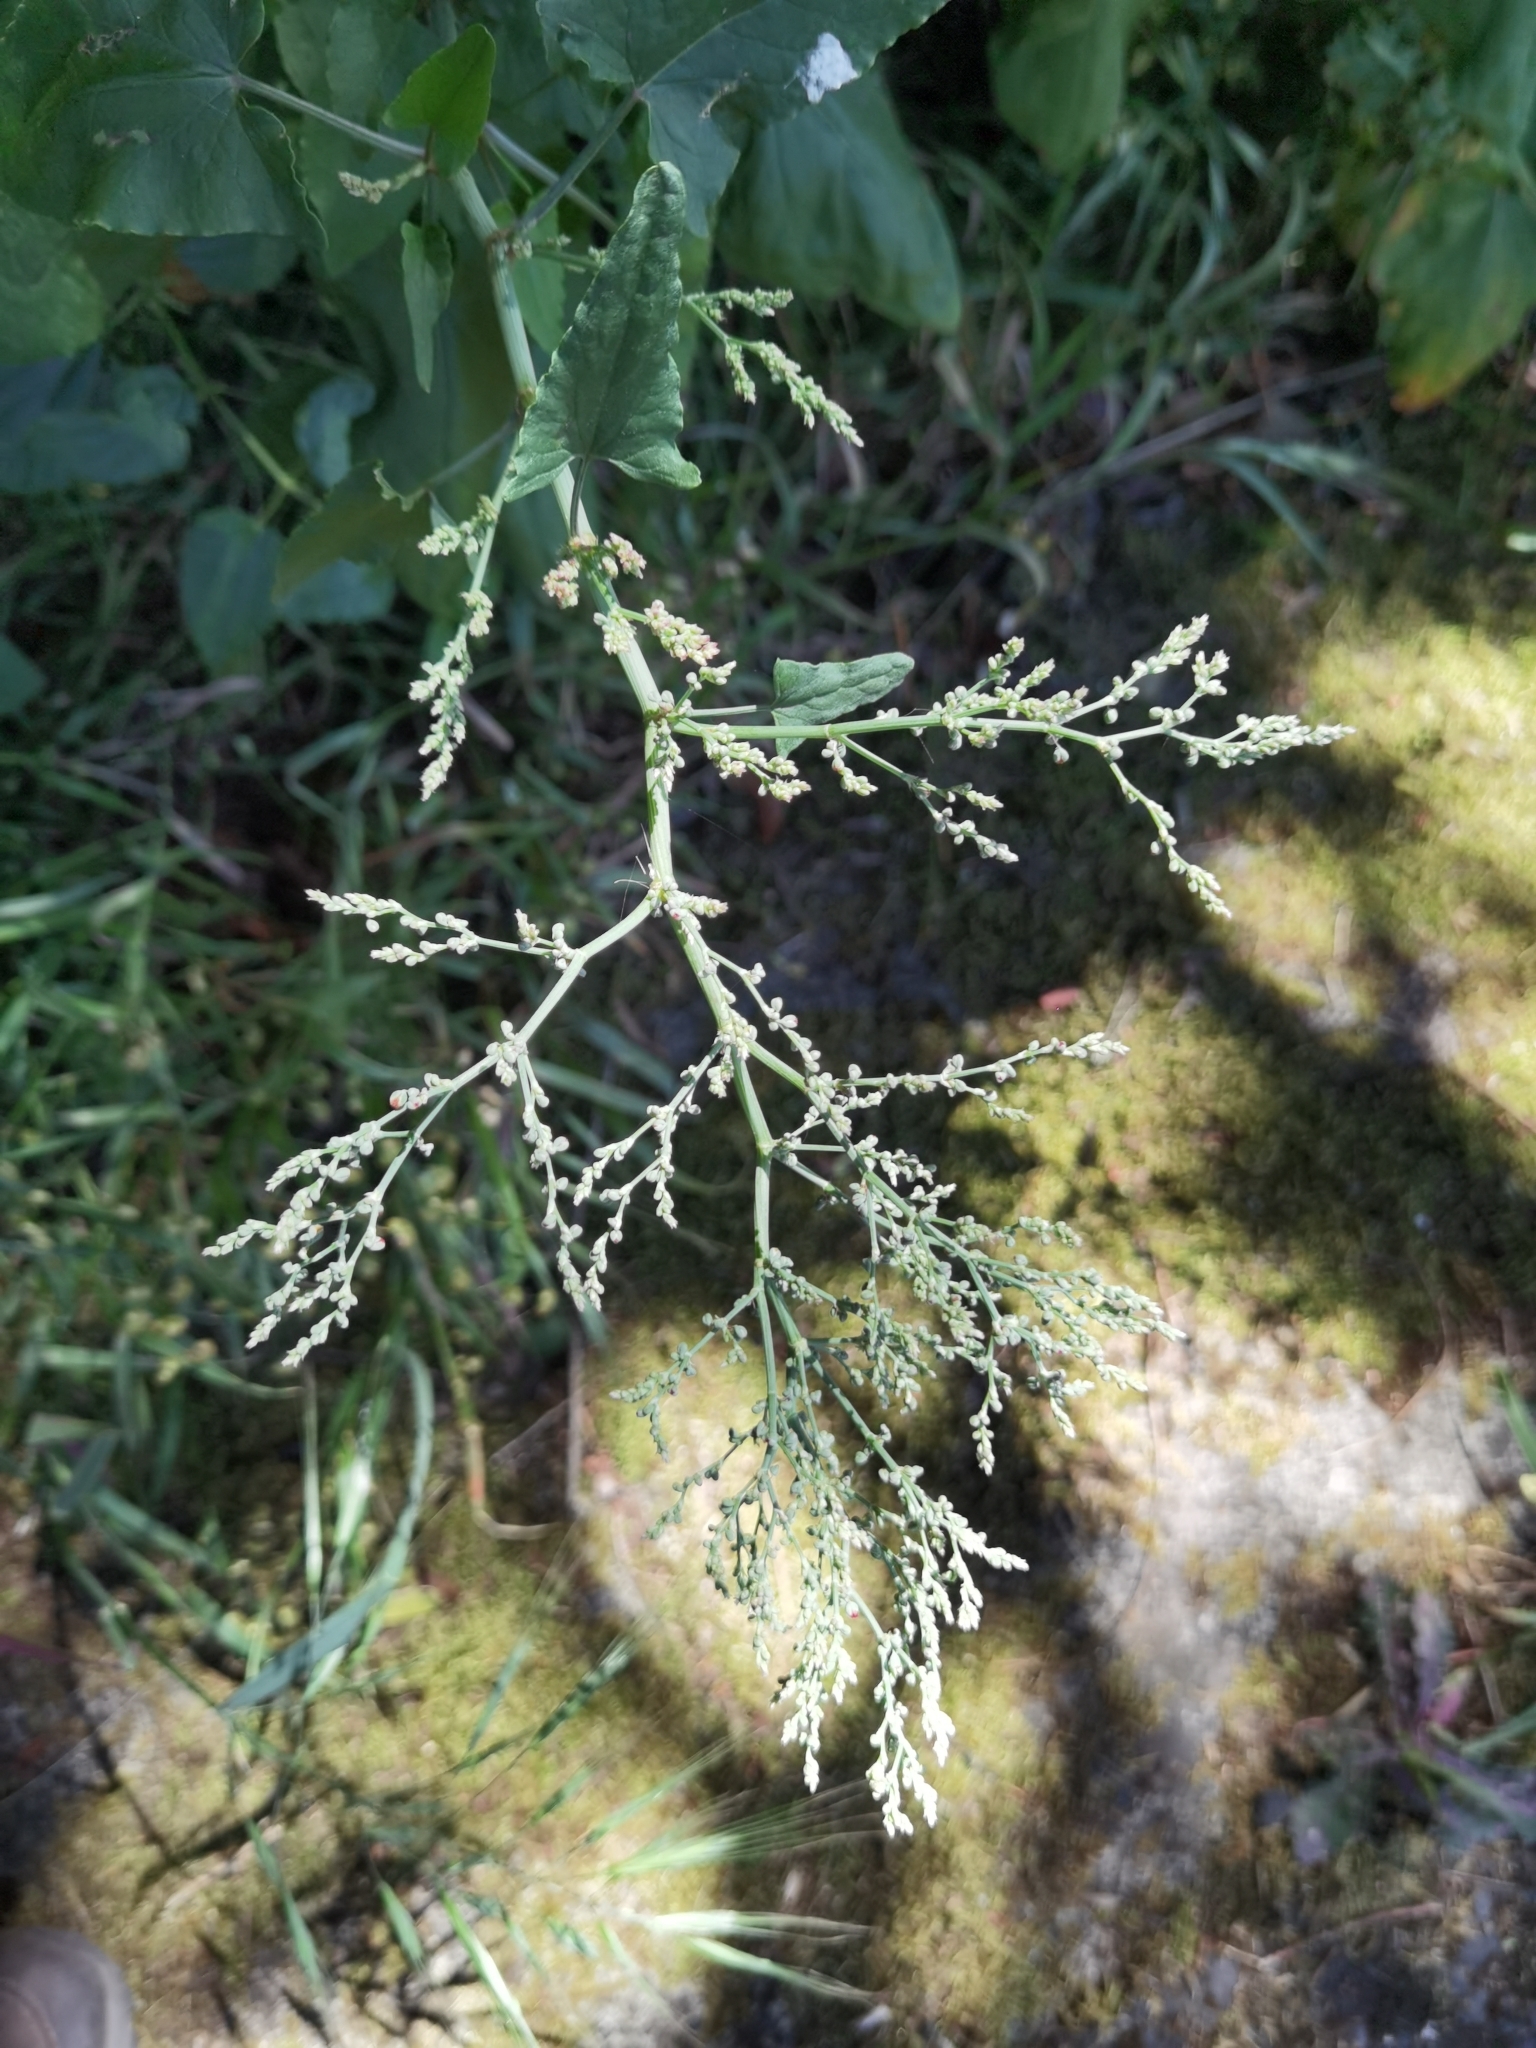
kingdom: Plantae
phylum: Tracheophyta
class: Magnoliopsida
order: Caryophyllales
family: Polygonaceae
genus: Rumex
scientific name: Rumex maderensis
